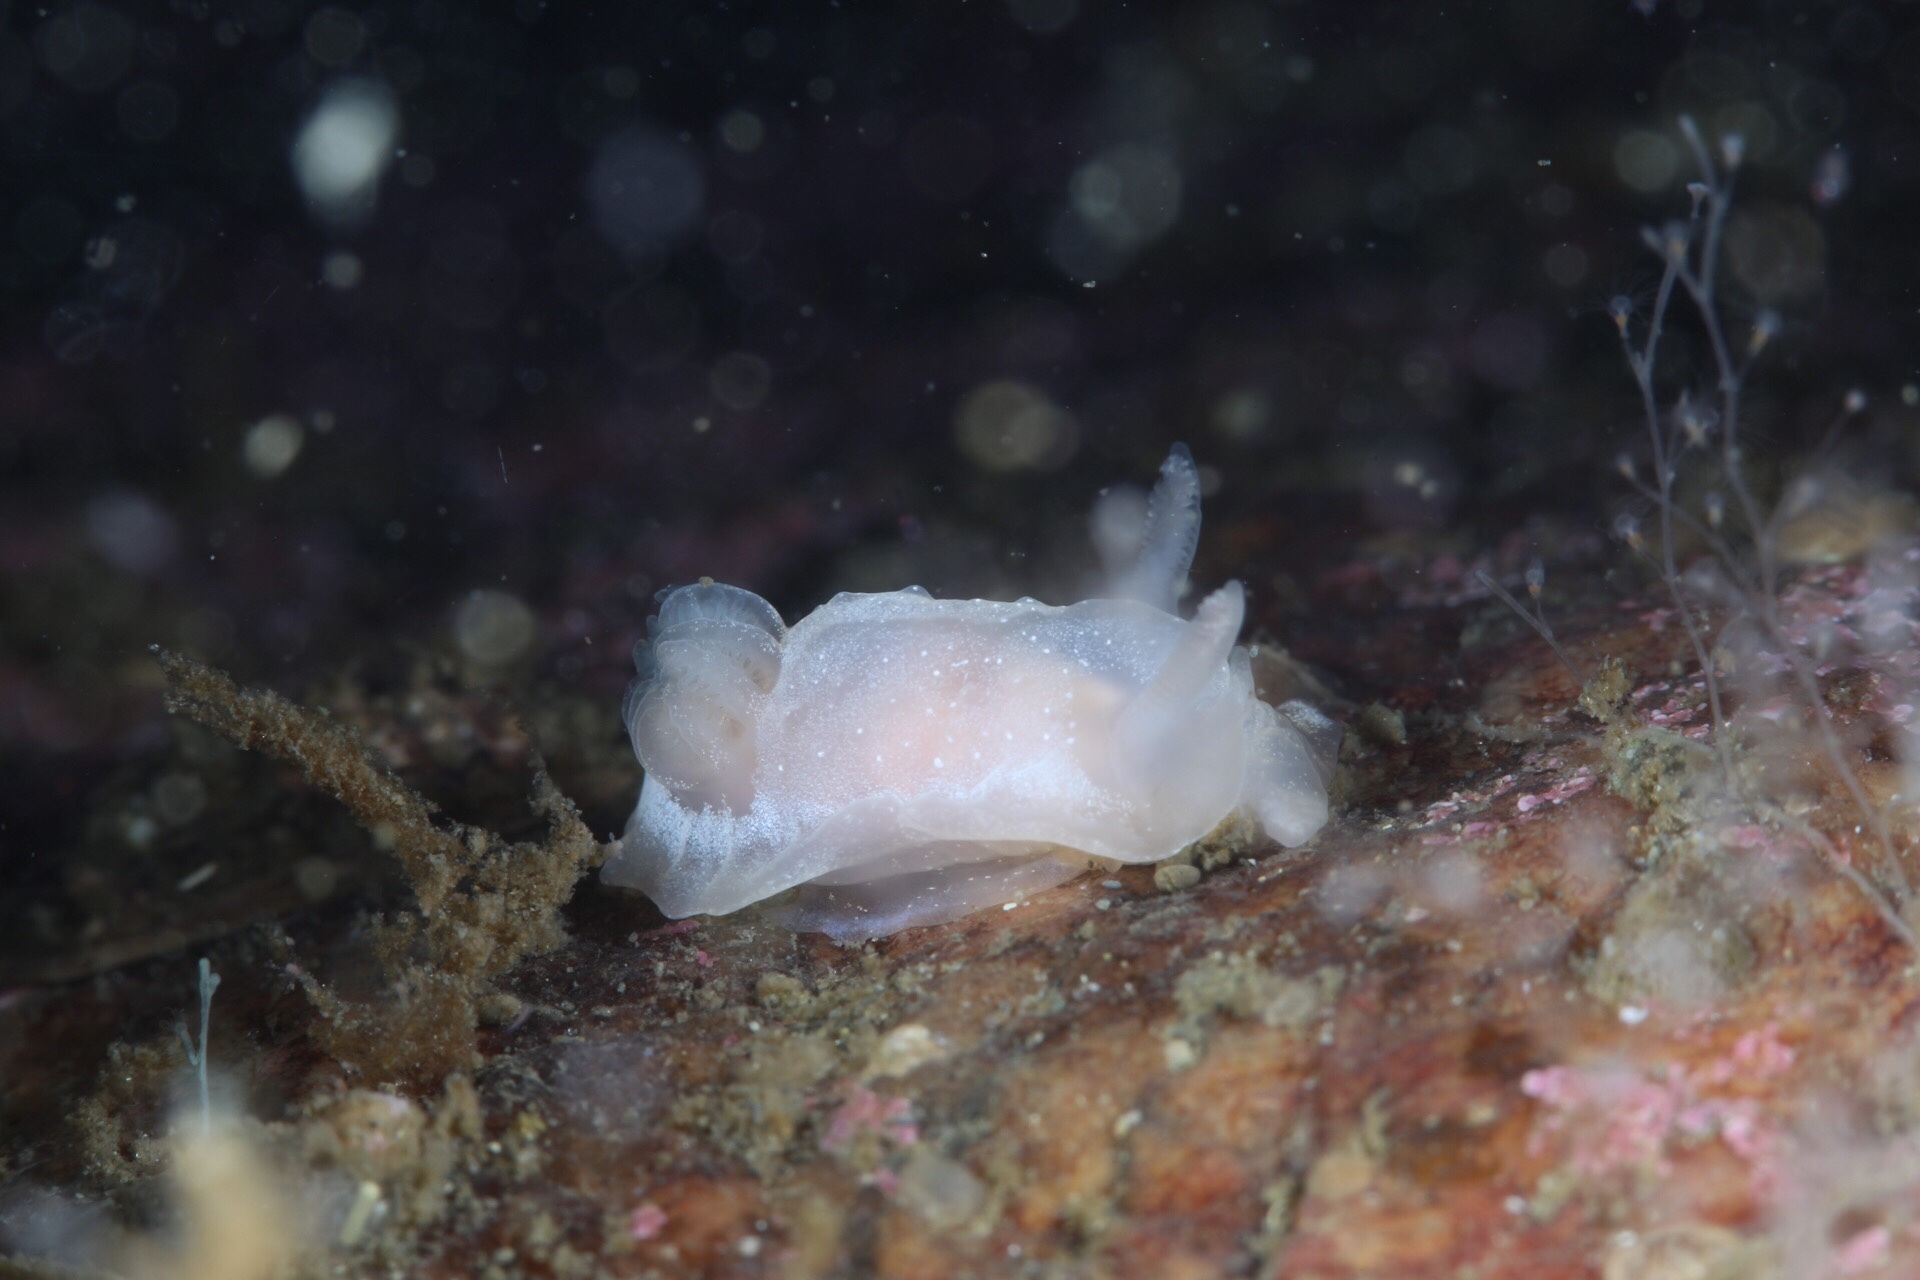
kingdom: Animalia
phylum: Mollusca
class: Gastropoda
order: Nudibranchia
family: Goniodorididae
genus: Okenia
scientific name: Okenia
